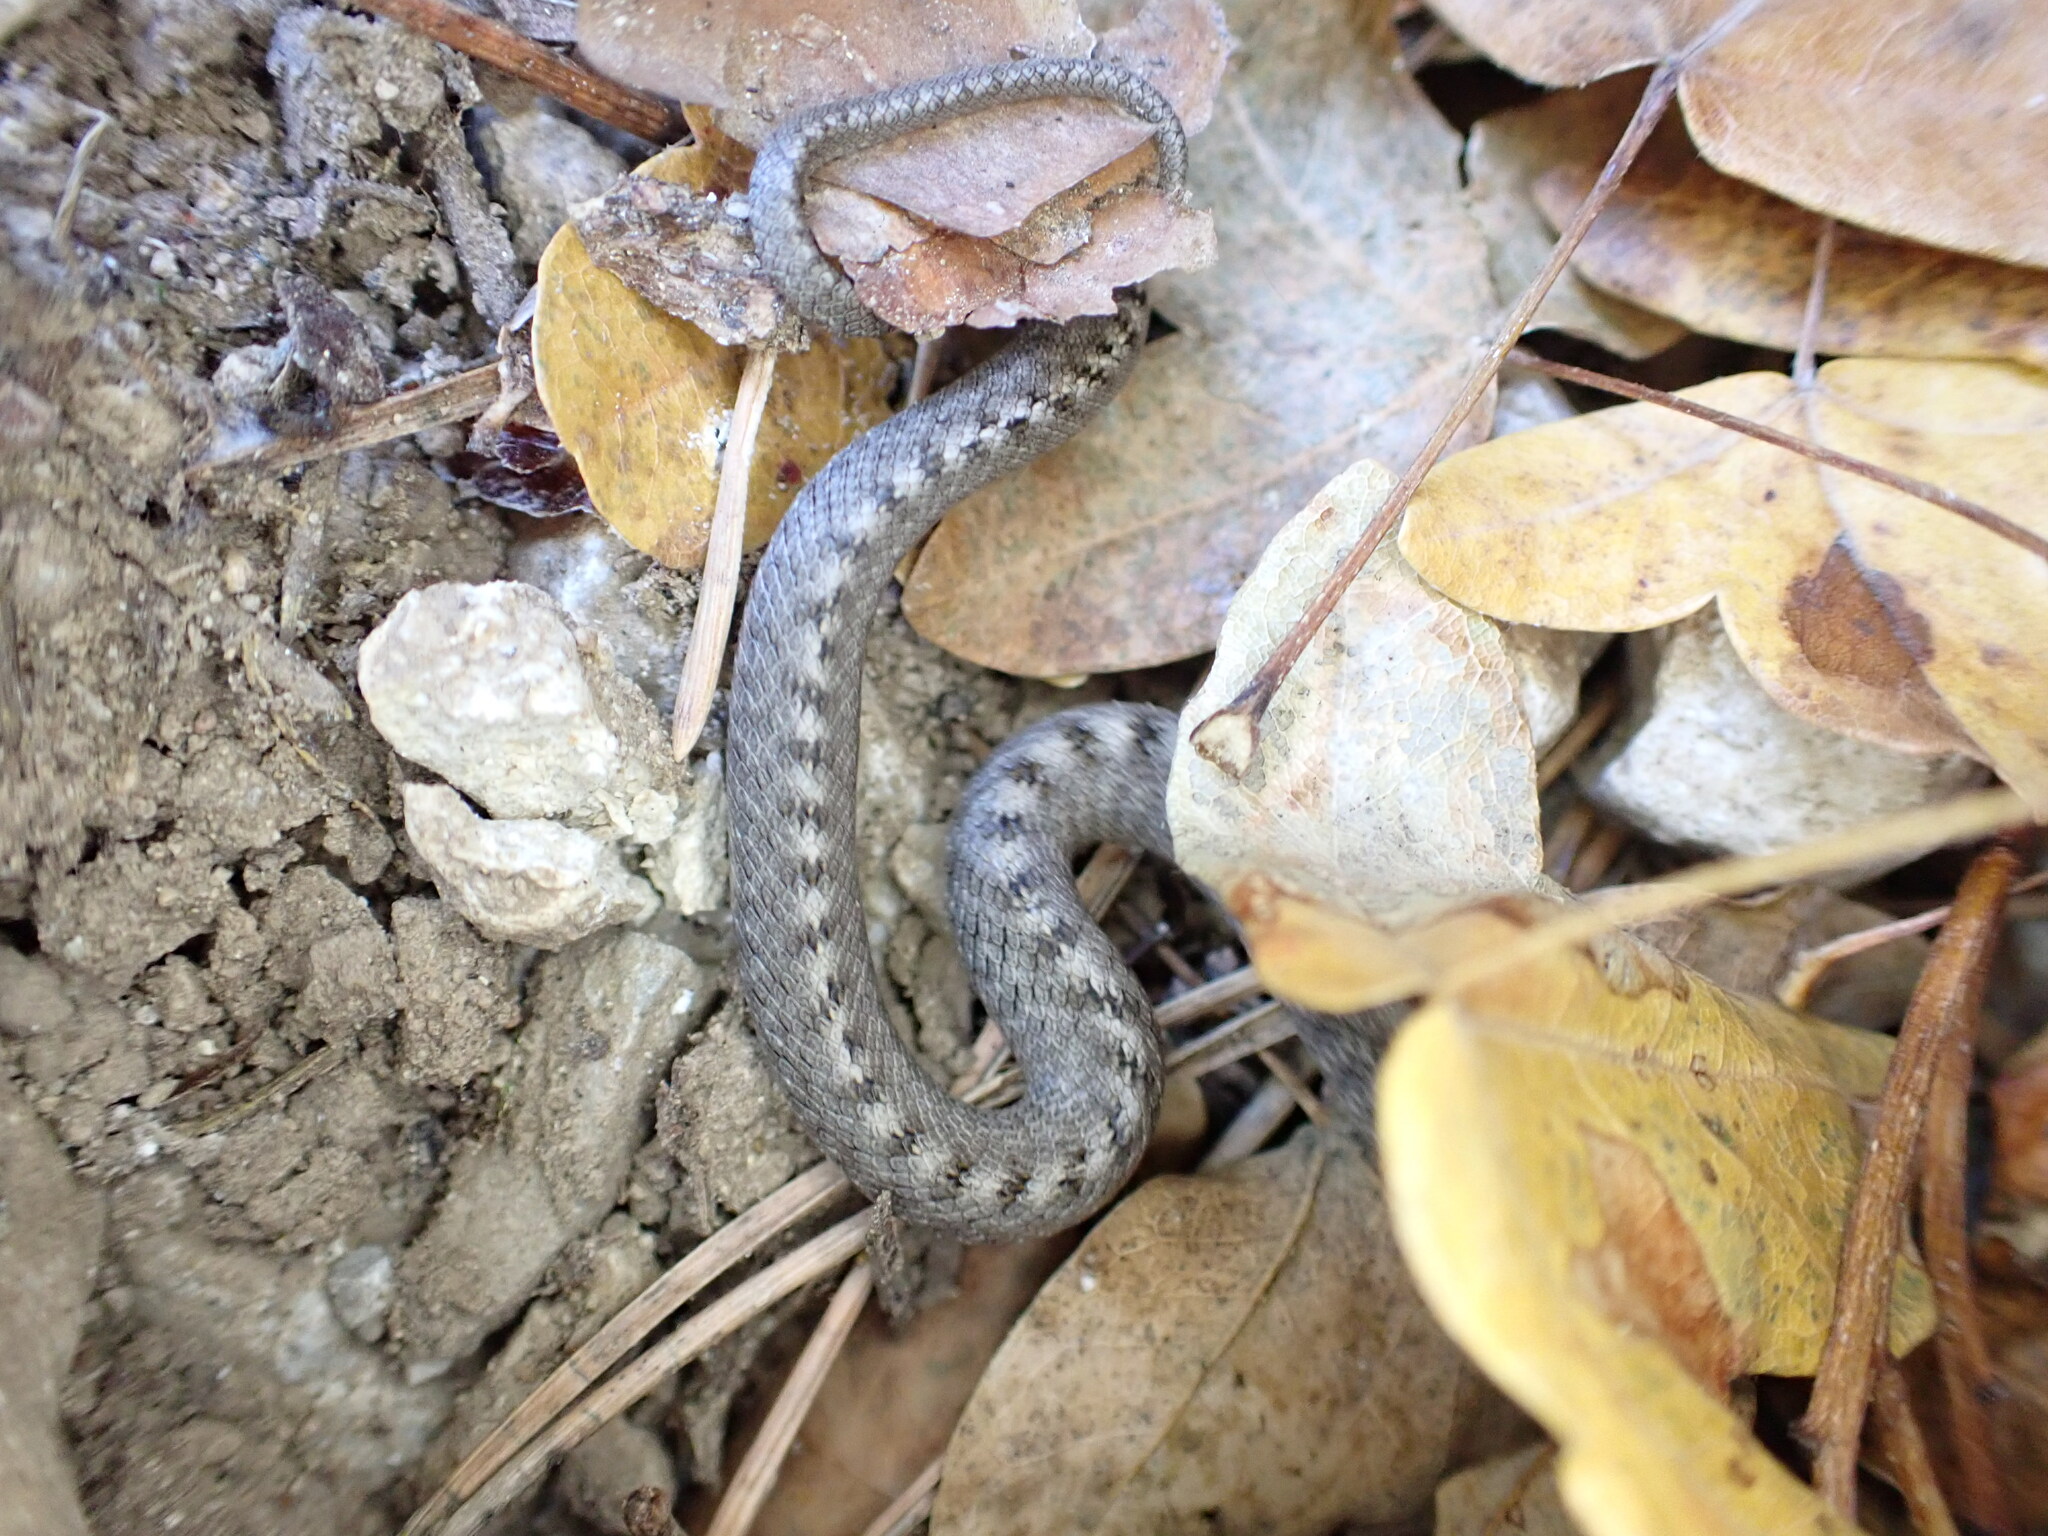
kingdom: Animalia
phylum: Chordata
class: Squamata
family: Colubridae
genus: Coronella
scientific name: Coronella girondica
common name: Southern smooth snake
